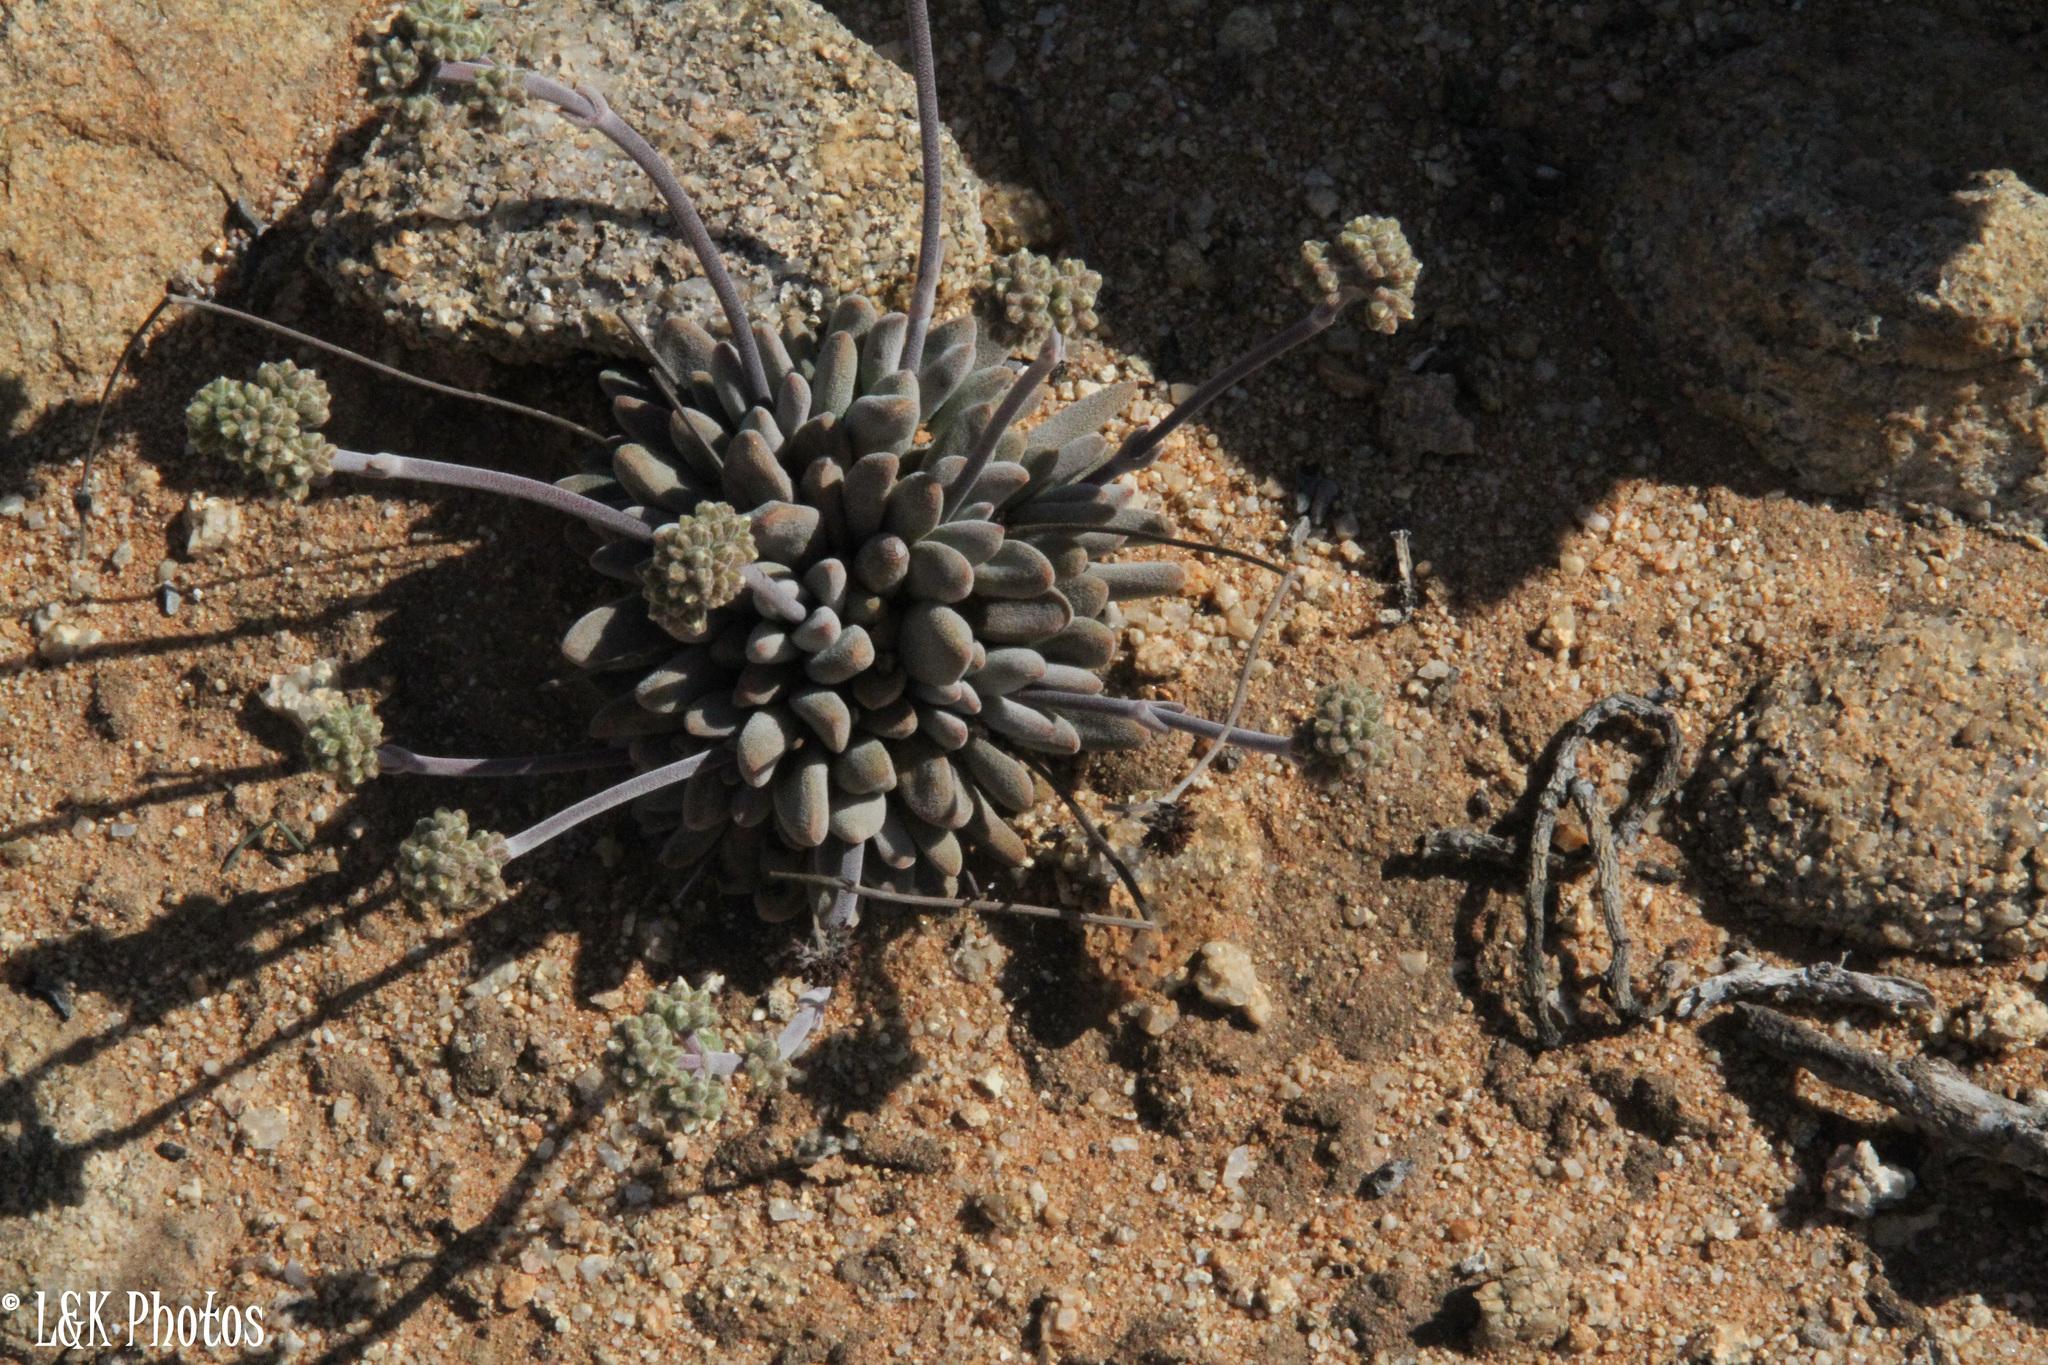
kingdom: Plantae
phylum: Tracheophyta
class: Magnoliopsida
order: Saxifragales
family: Crassulaceae
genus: Crassula
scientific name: Crassula namaquensis
